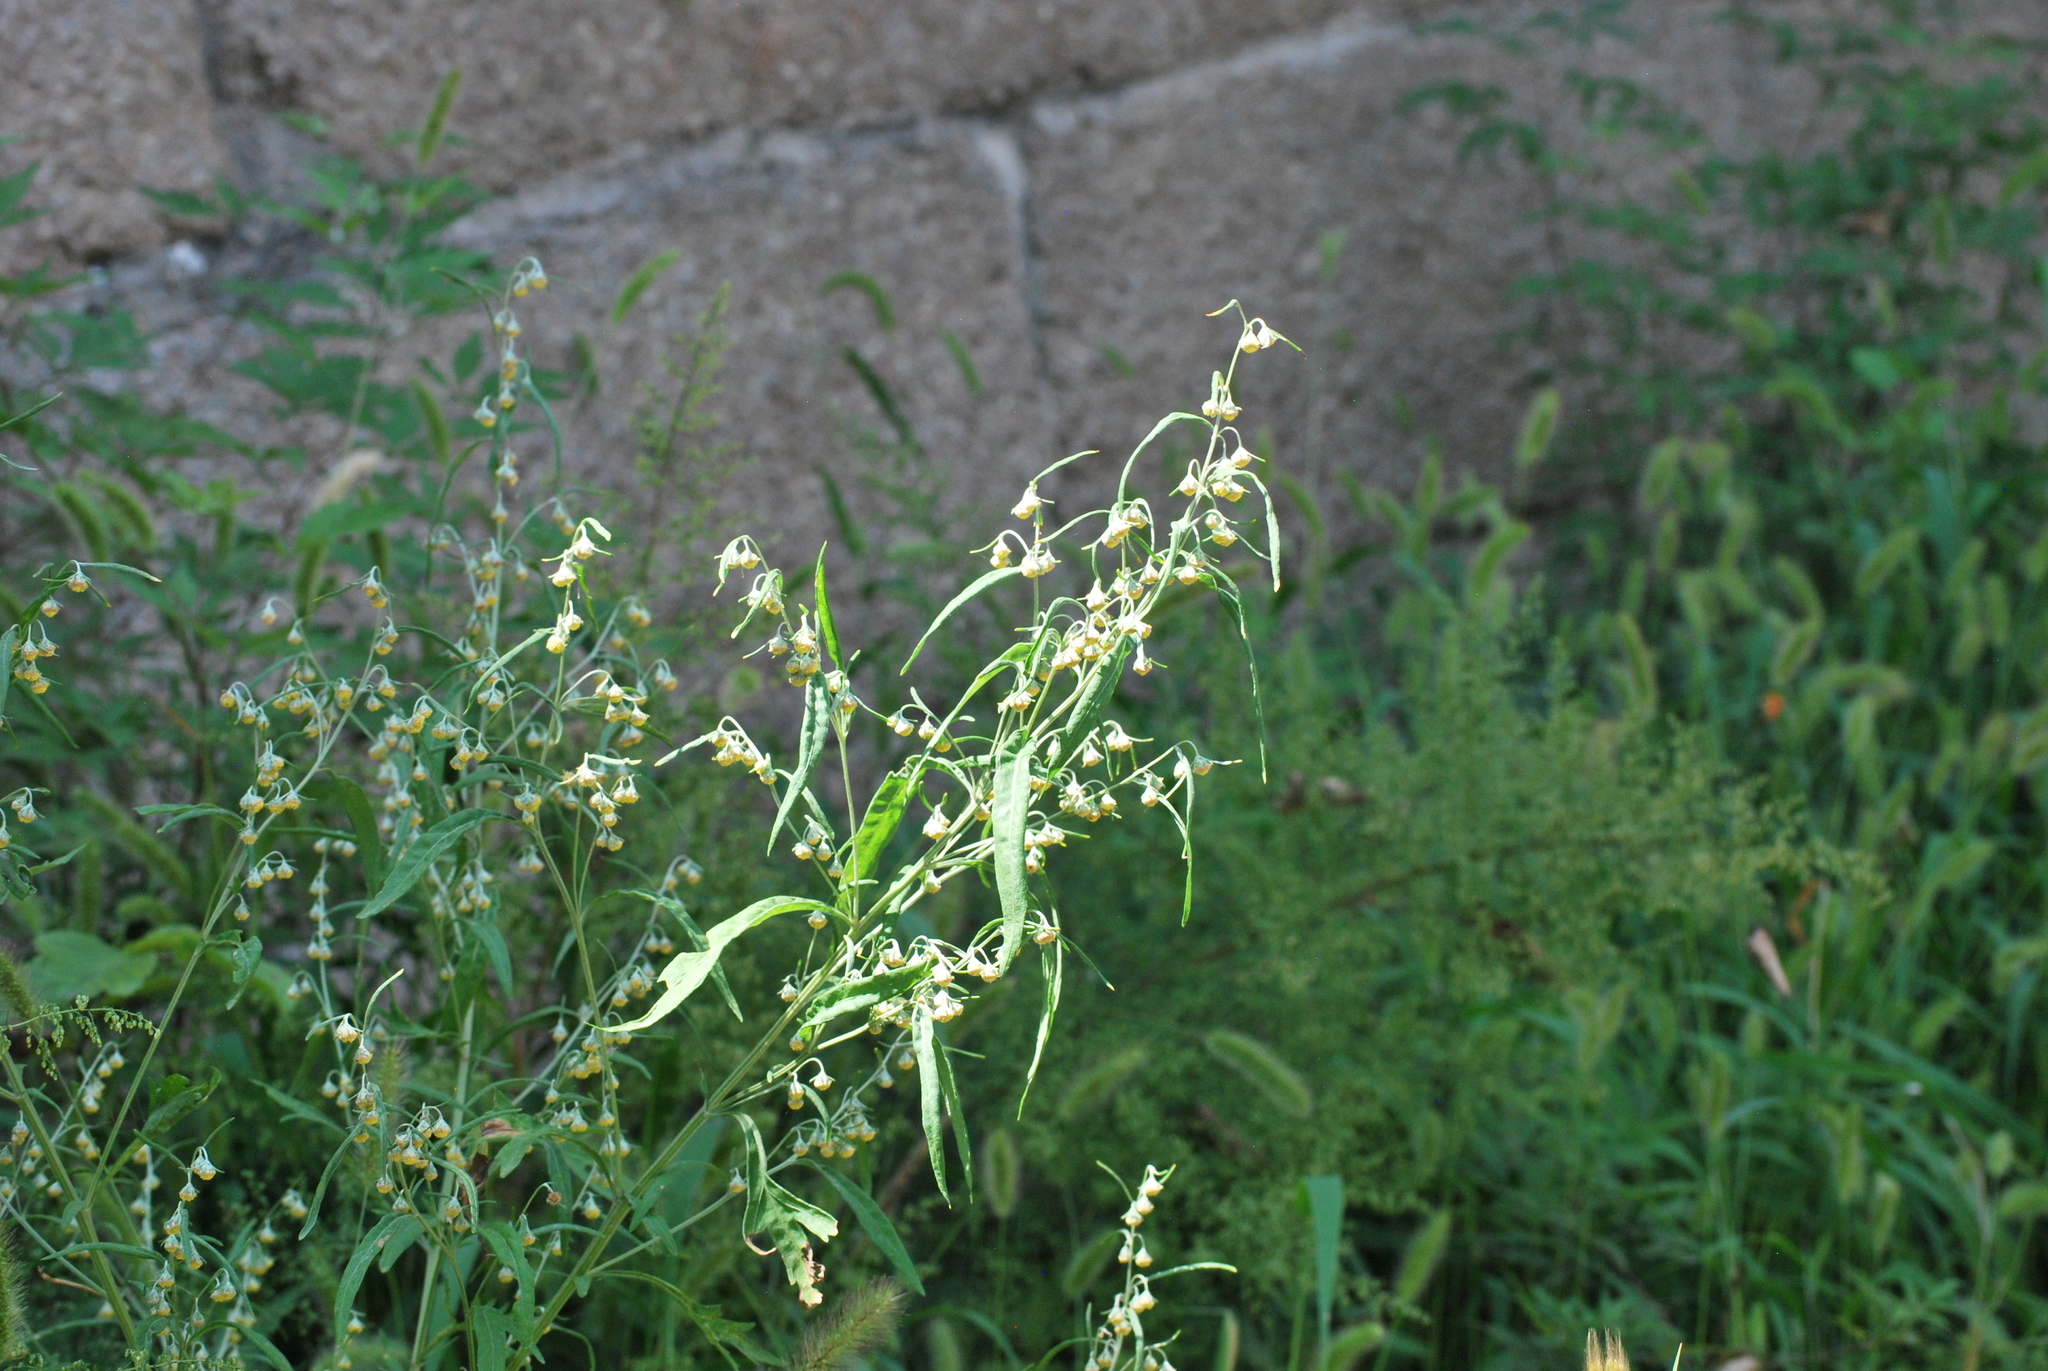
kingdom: Plantae
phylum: Tracheophyta
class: Magnoliopsida
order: Asterales
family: Asteraceae
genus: Artemisia
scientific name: Artemisia sieversiana
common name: Sieversian wormwood
